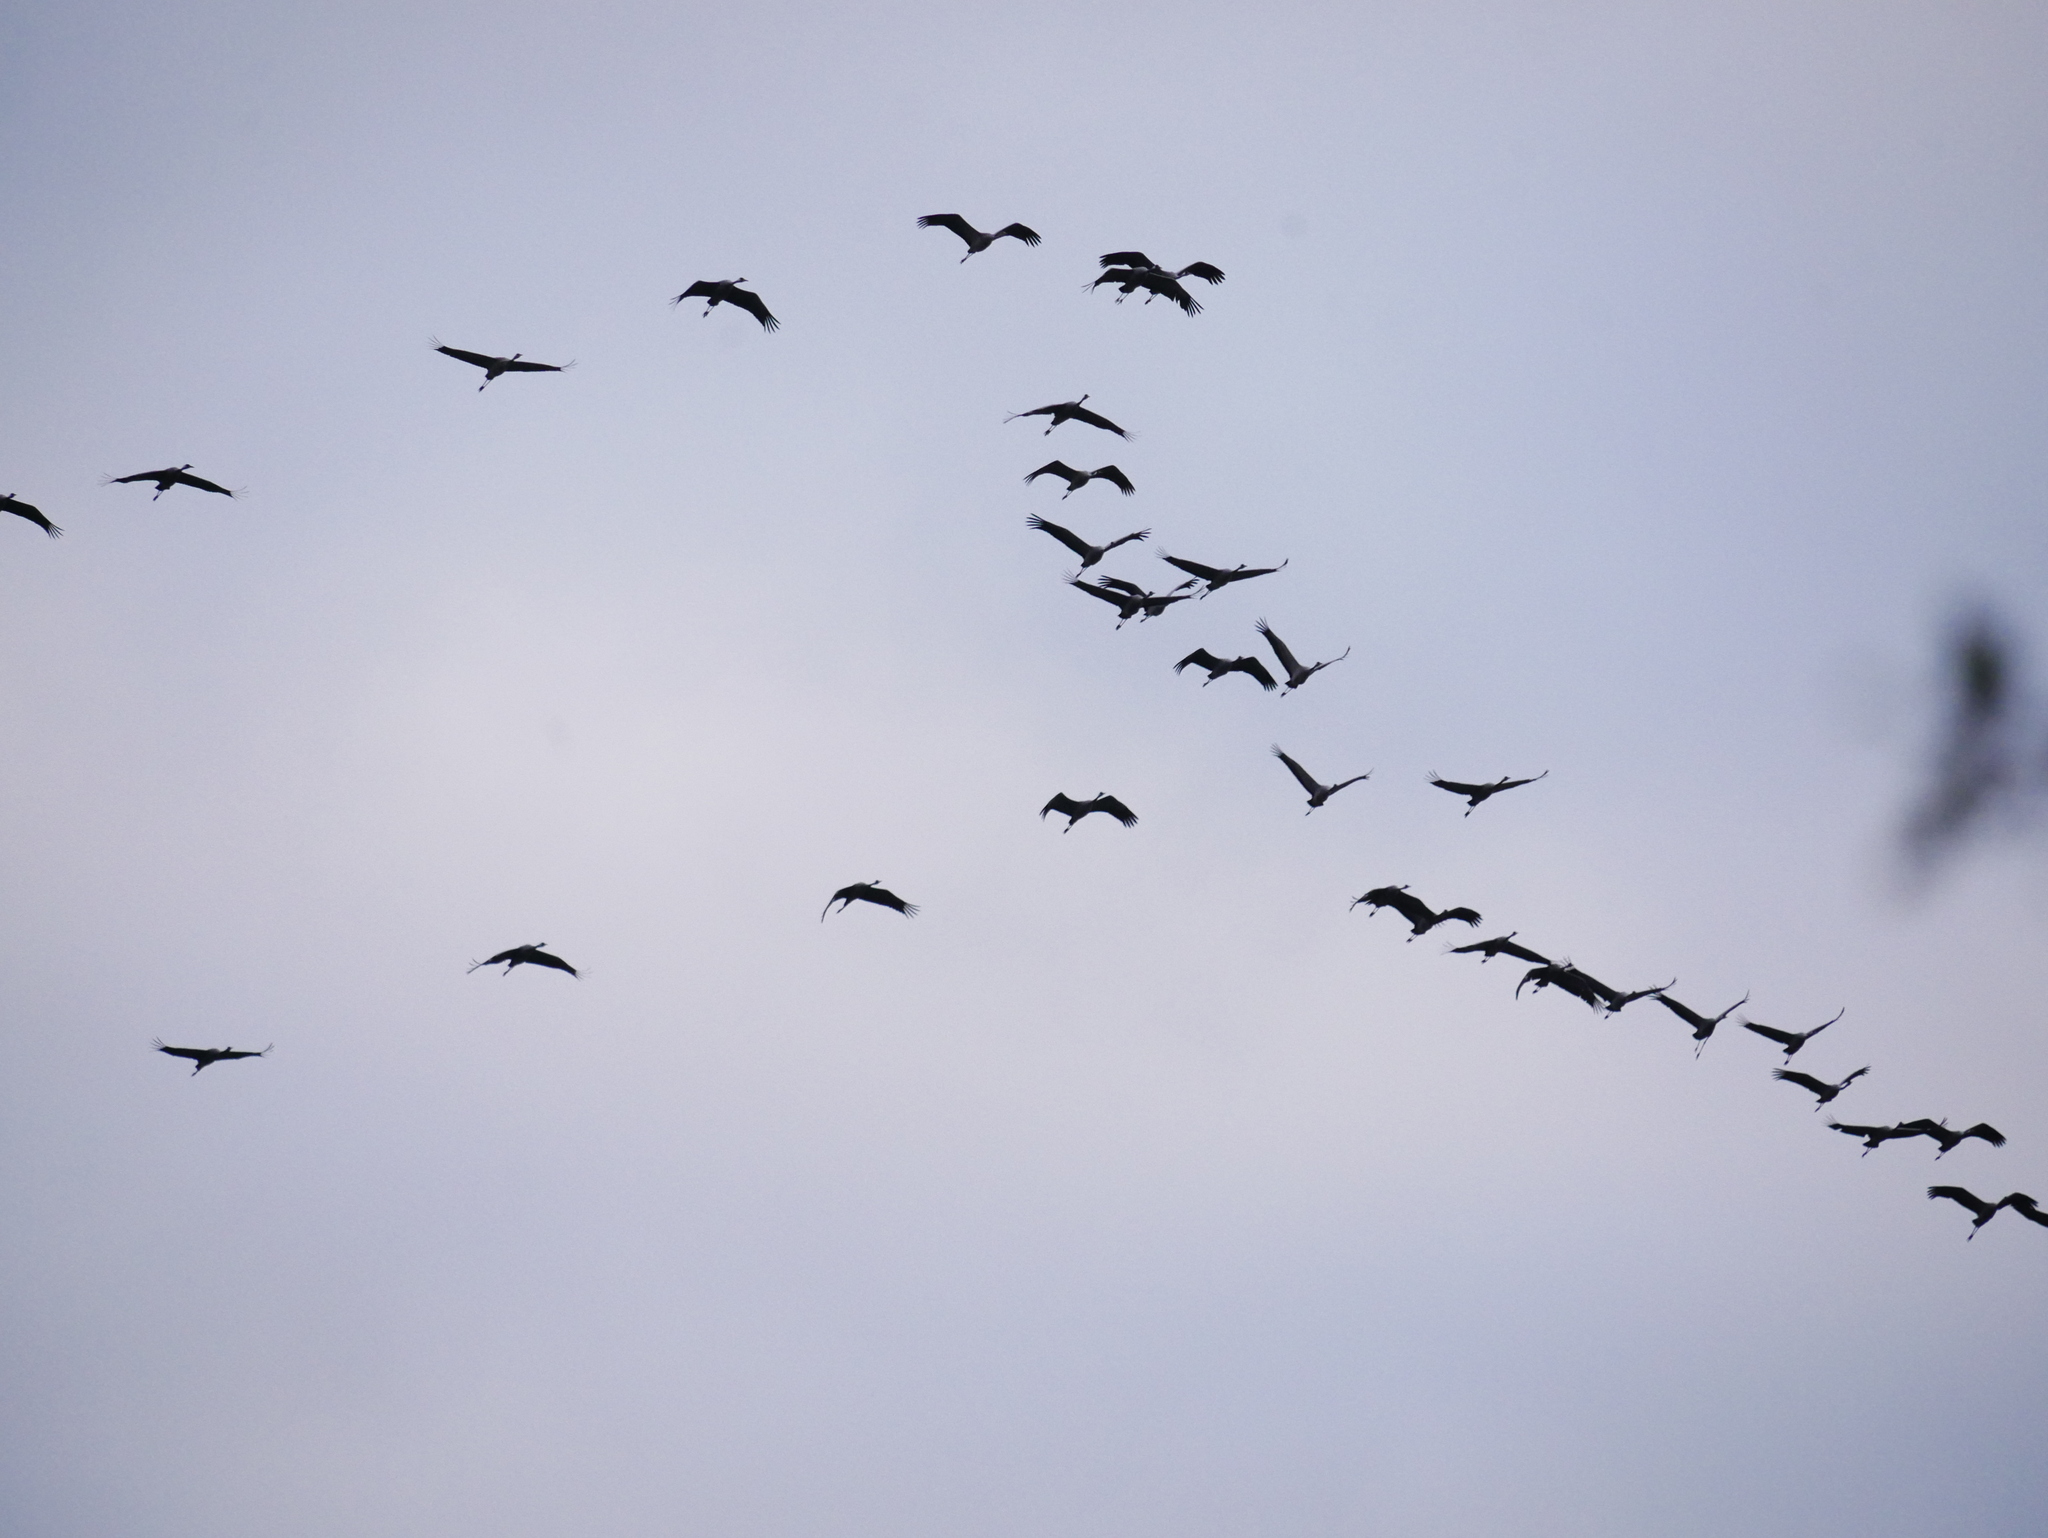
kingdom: Animalia
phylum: Chordata
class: Aves
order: Gruiformes
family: Gruidae
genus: Grus
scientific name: Grus grus
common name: Common crane
